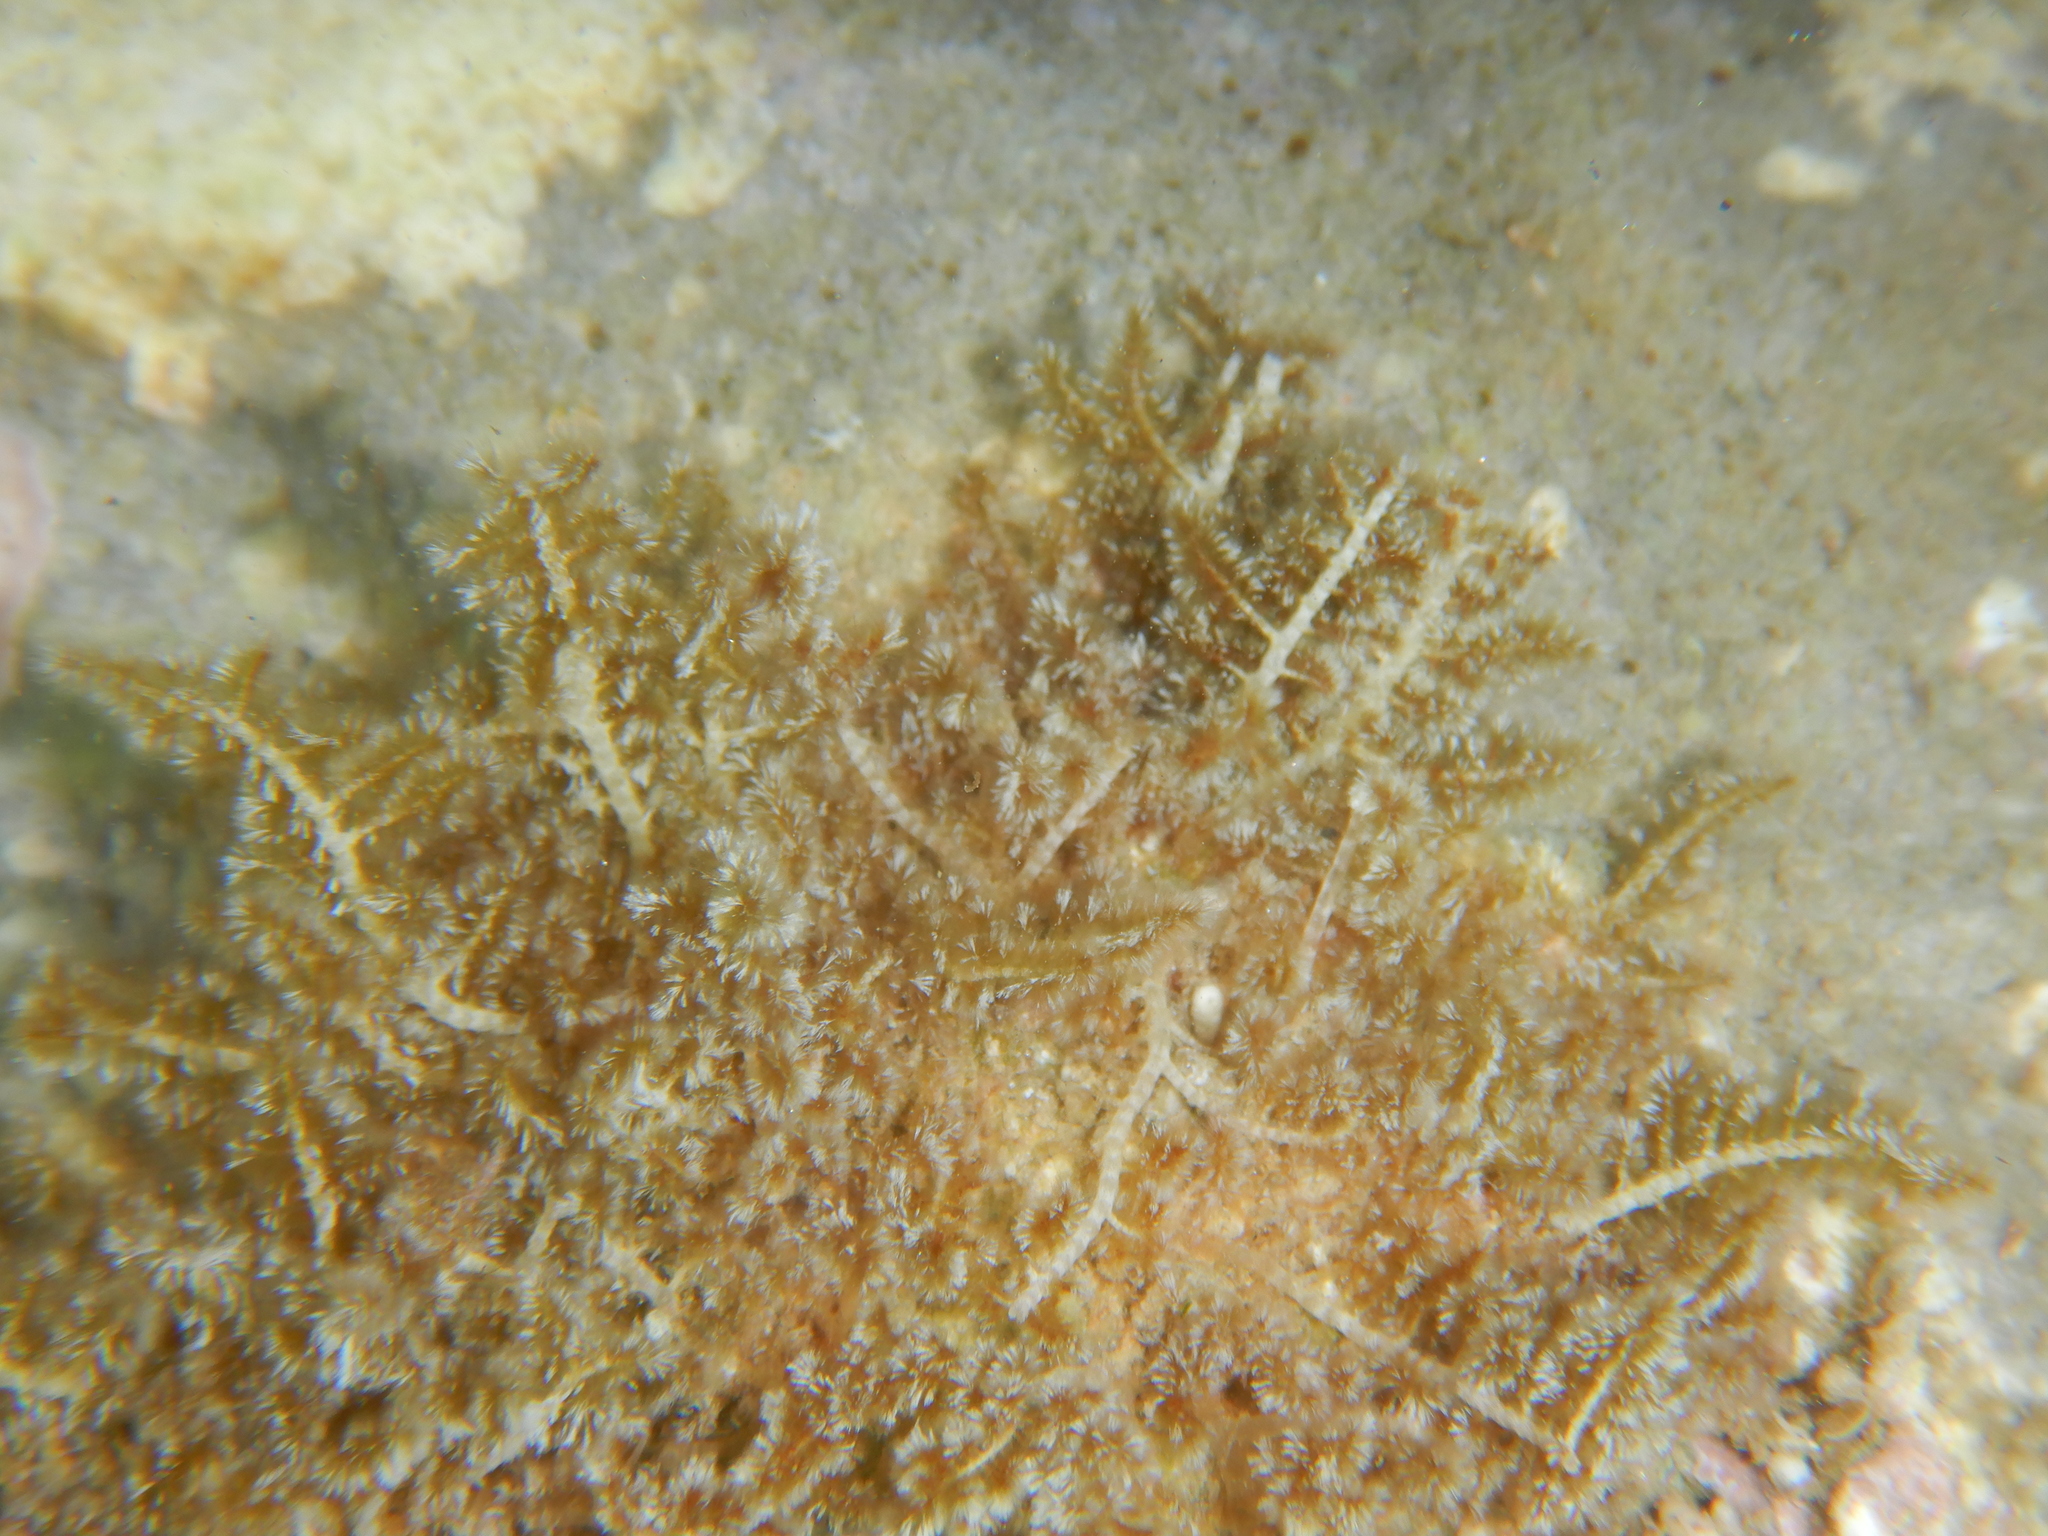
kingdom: Plantae
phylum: Rhodophyta
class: Florideophyceae
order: Ceramiales
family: Wrangeliaceae
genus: Wrangelia
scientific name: Wrangelia penicillata
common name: Pink bush algae
